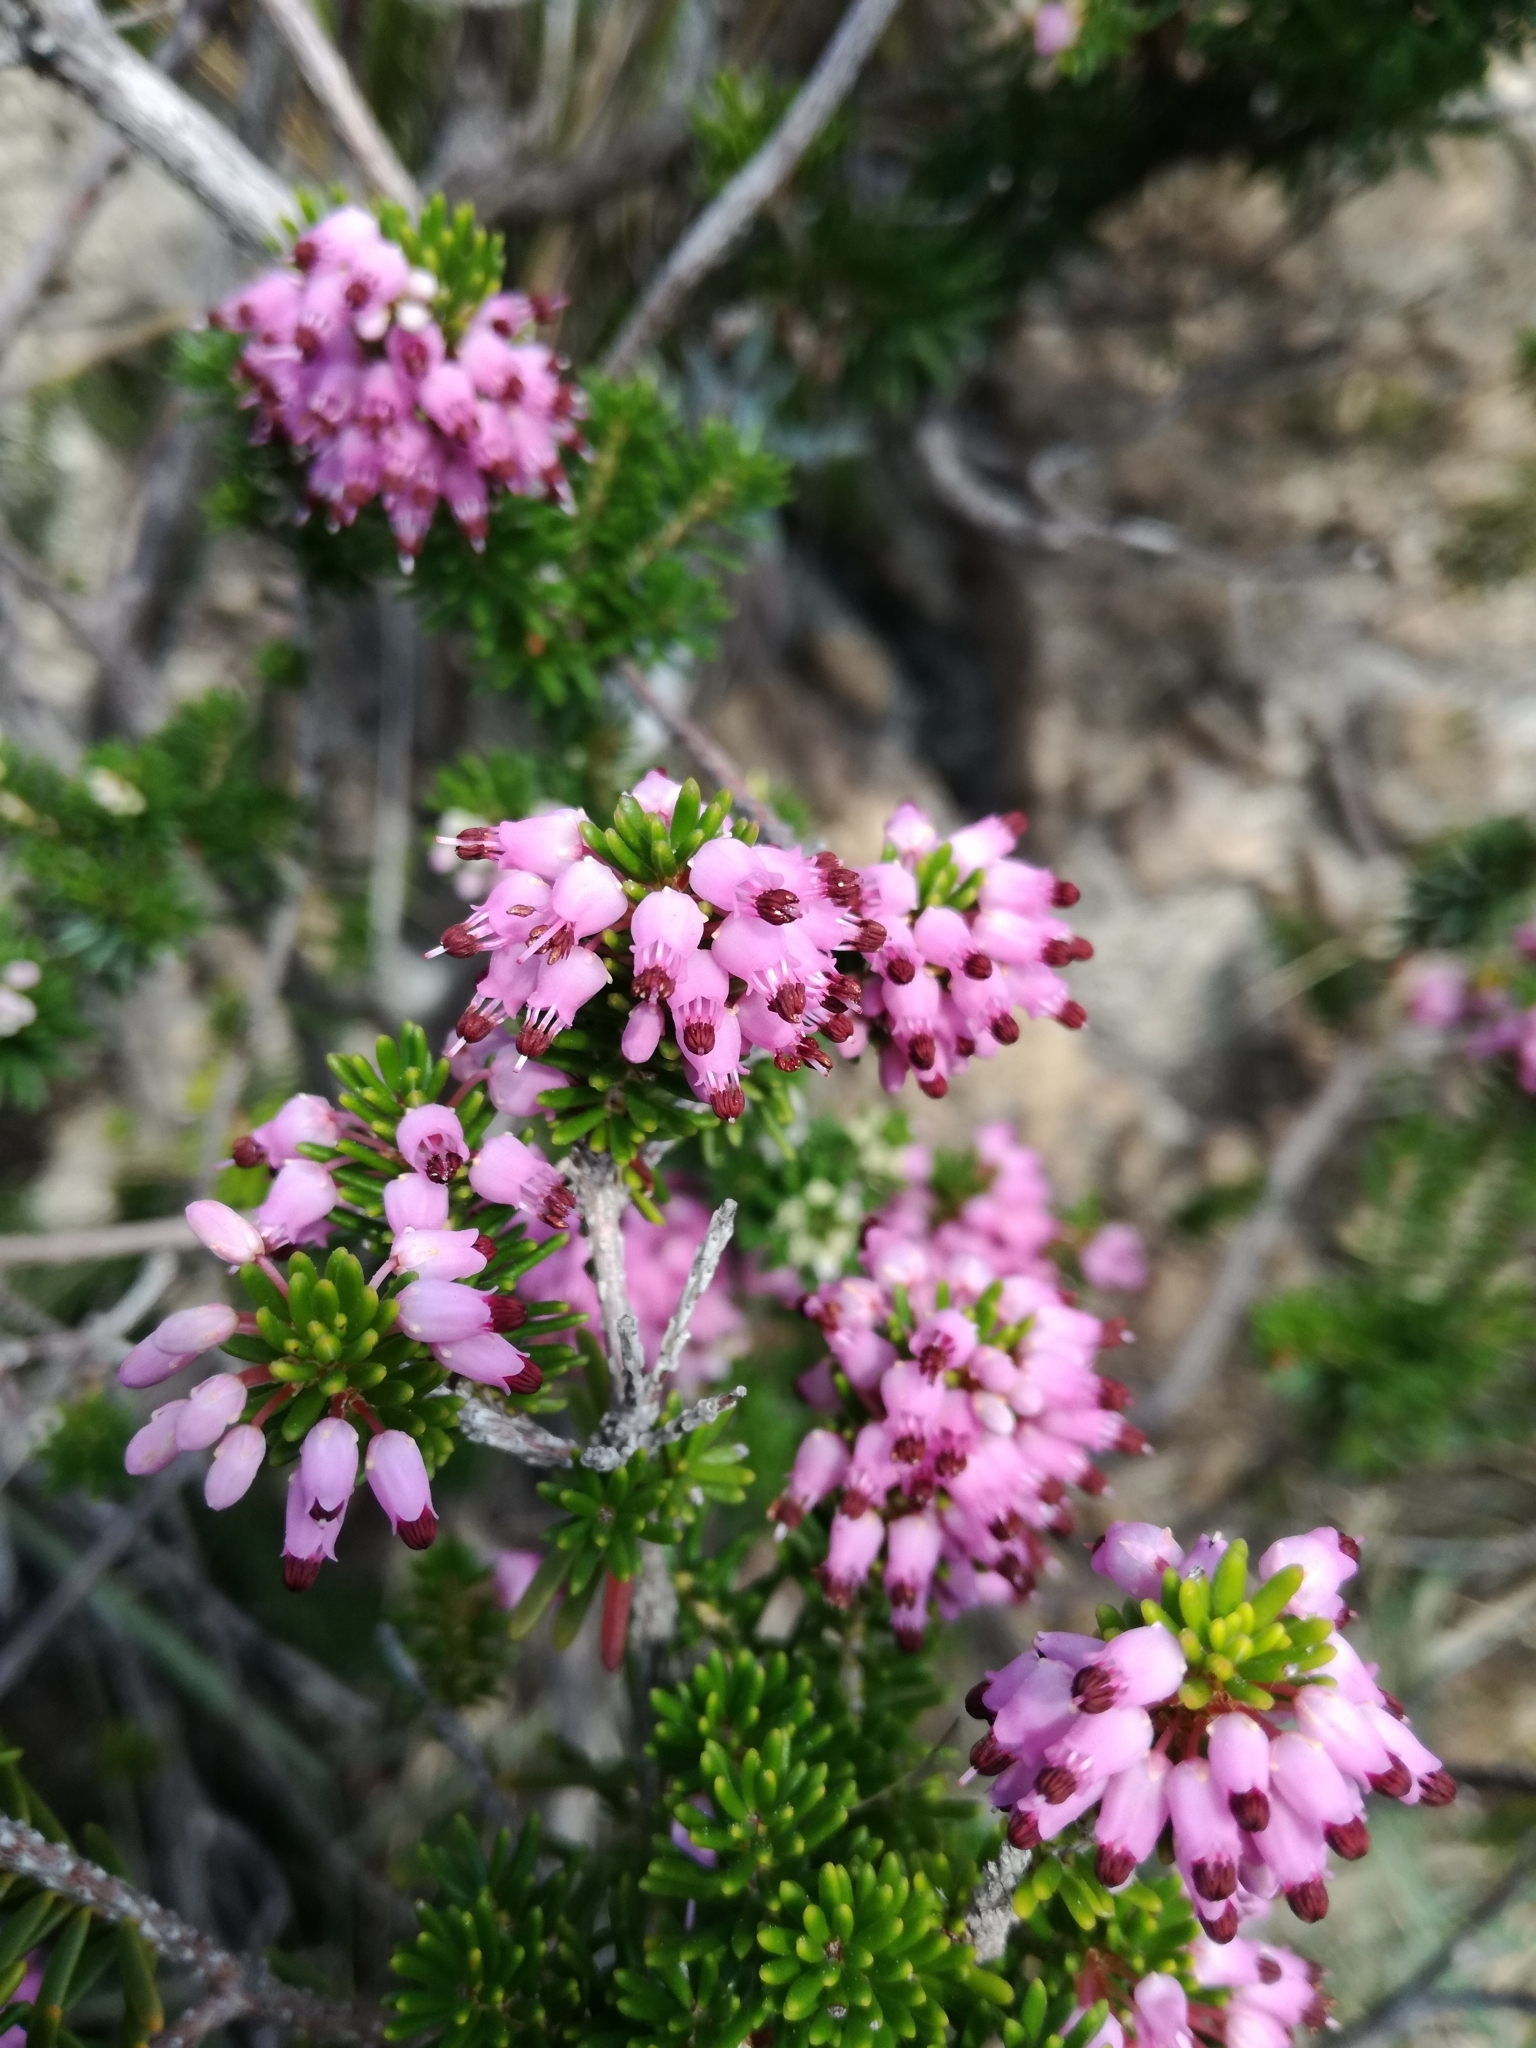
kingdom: Plantae
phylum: Tracheophyta
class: Magnoliopsida
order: Ericales
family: Ericaceae
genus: Erica
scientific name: Erica multiflora
